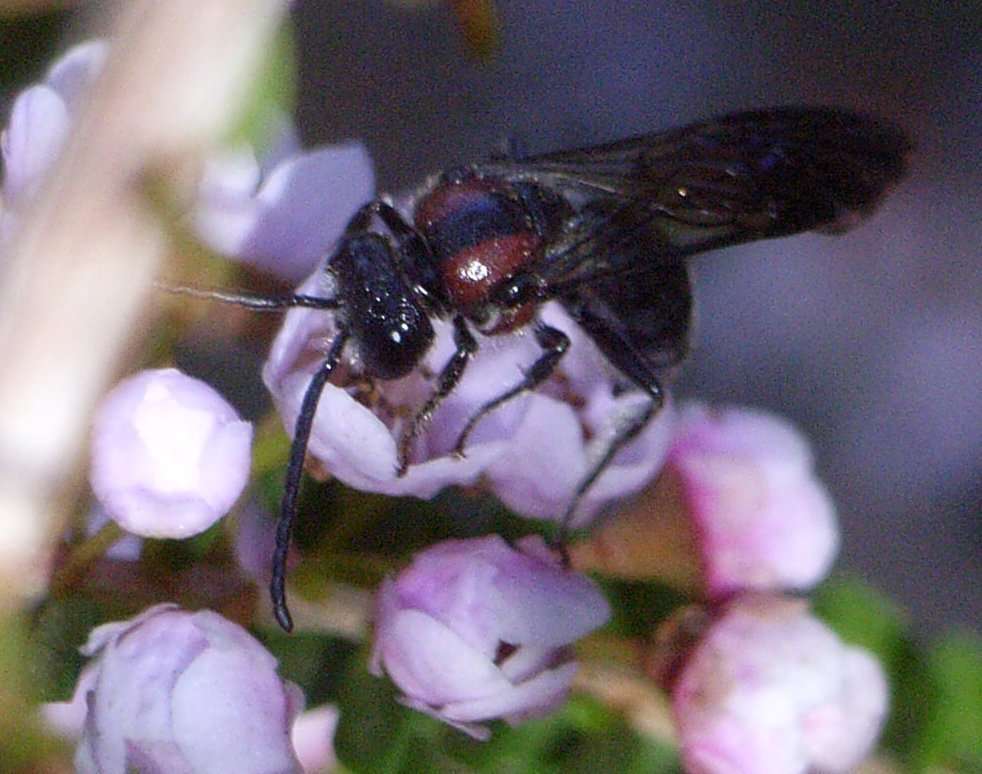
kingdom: Animalia
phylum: Arthropoda
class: Insecta
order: Hymenoptera
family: Colletidae
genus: Callomelitta
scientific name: Callomelitta picta
